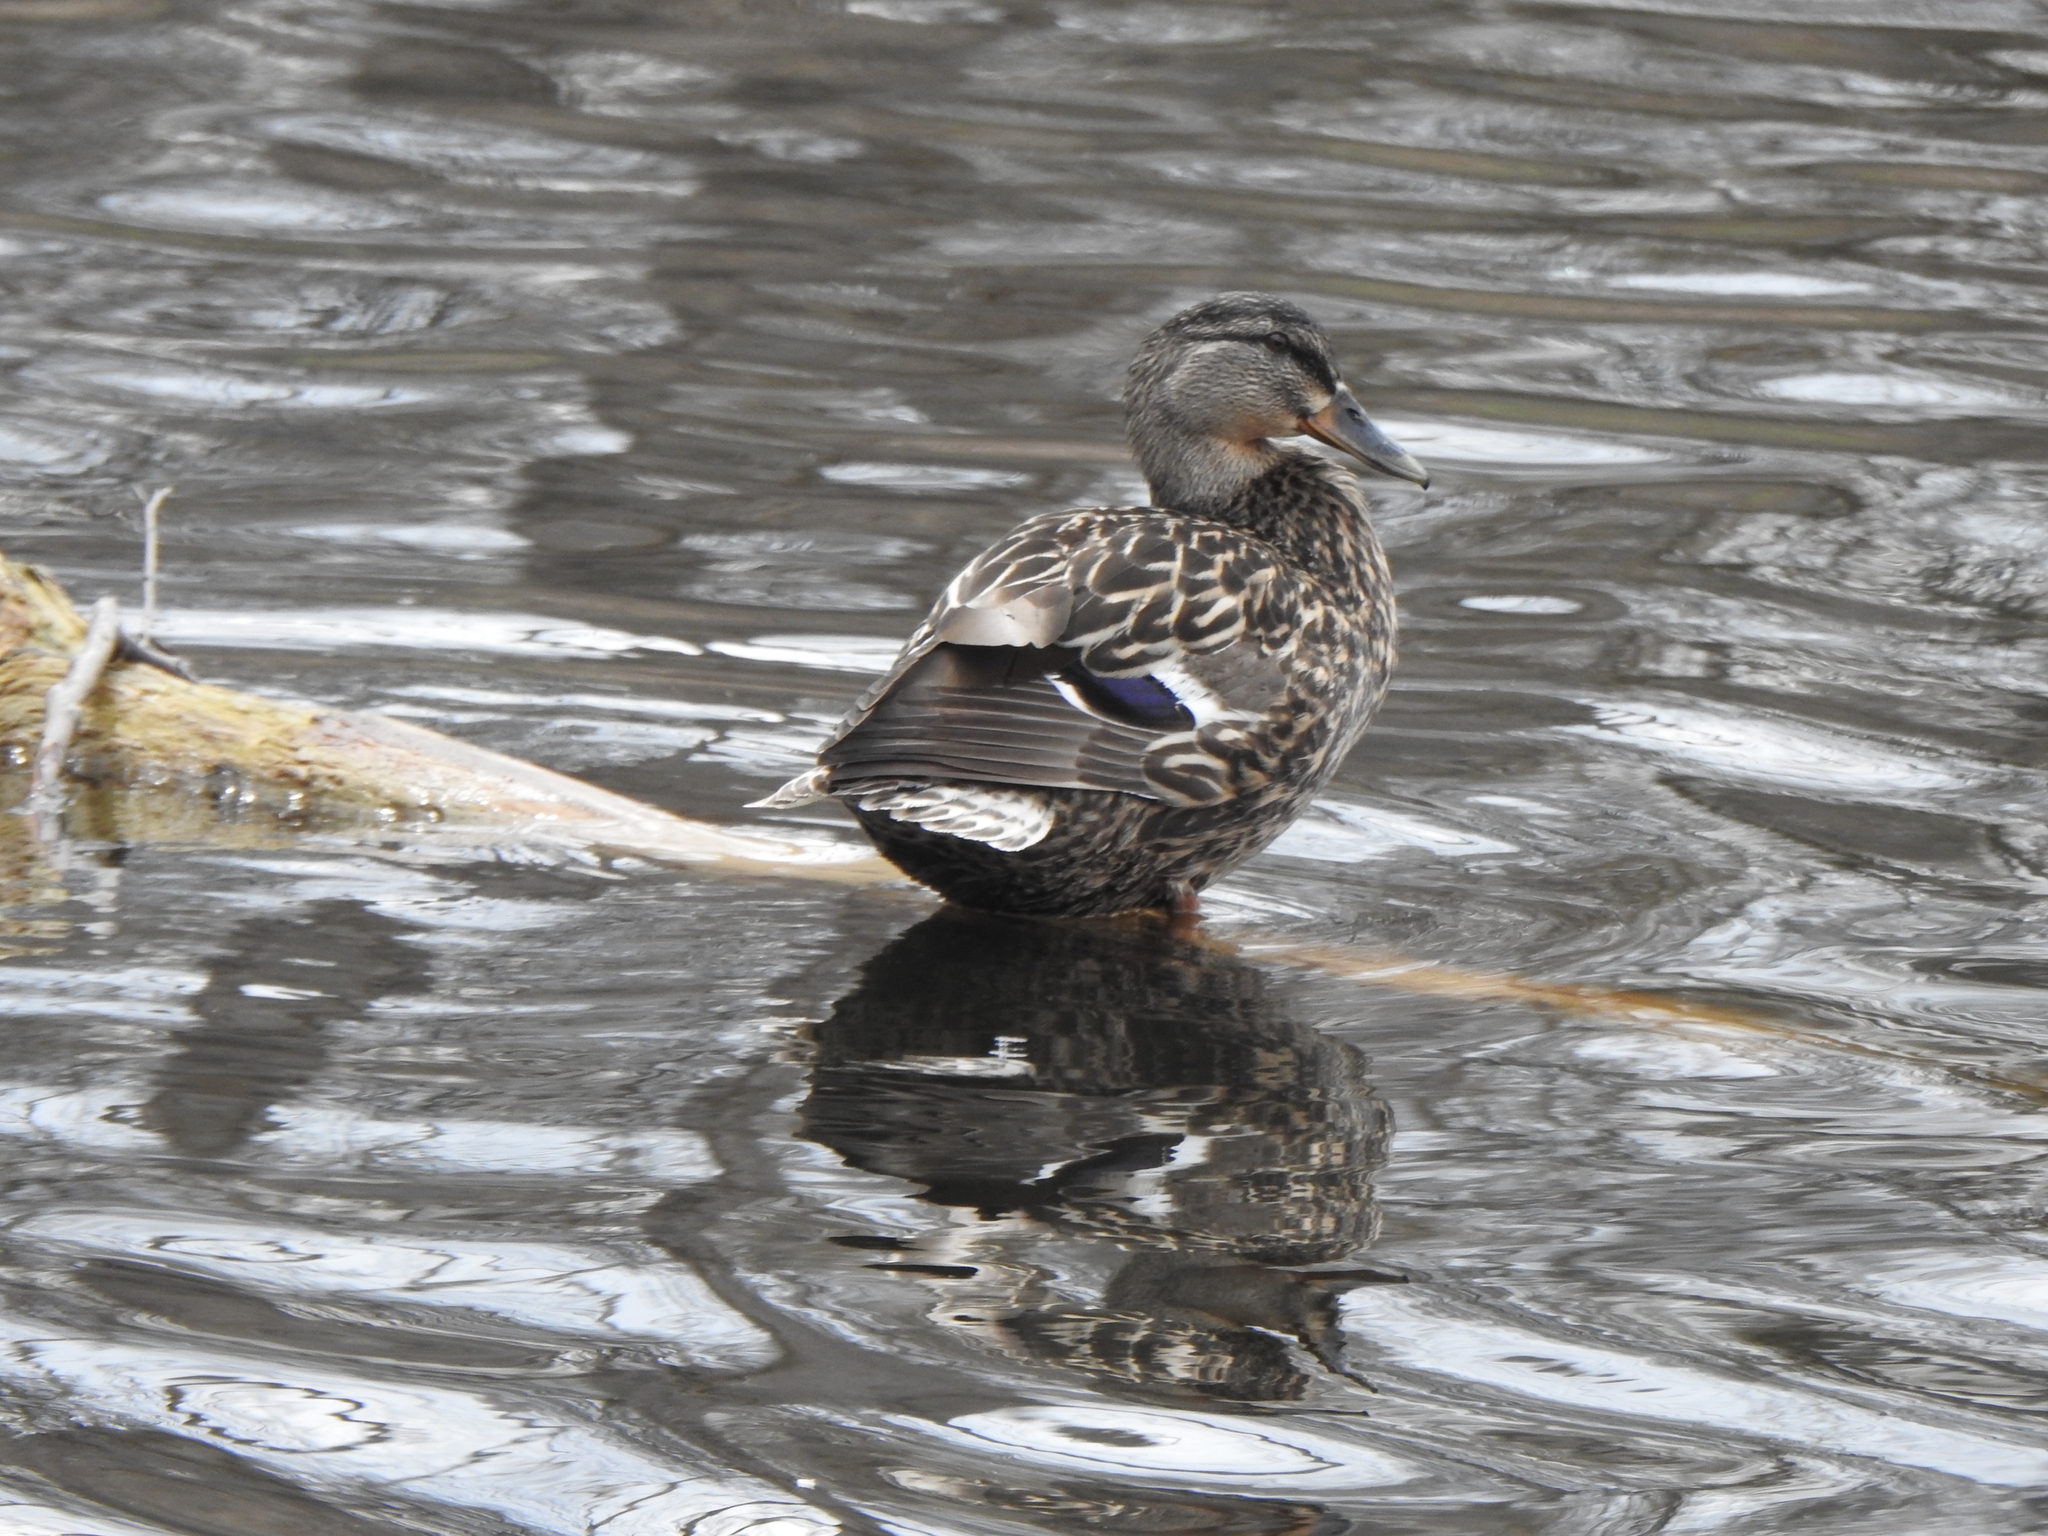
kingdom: Animalia
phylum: Chordata
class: Aves
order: Anseriformes
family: Anatidae
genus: Anas
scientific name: Anas platyrhynchos
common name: Mallard
